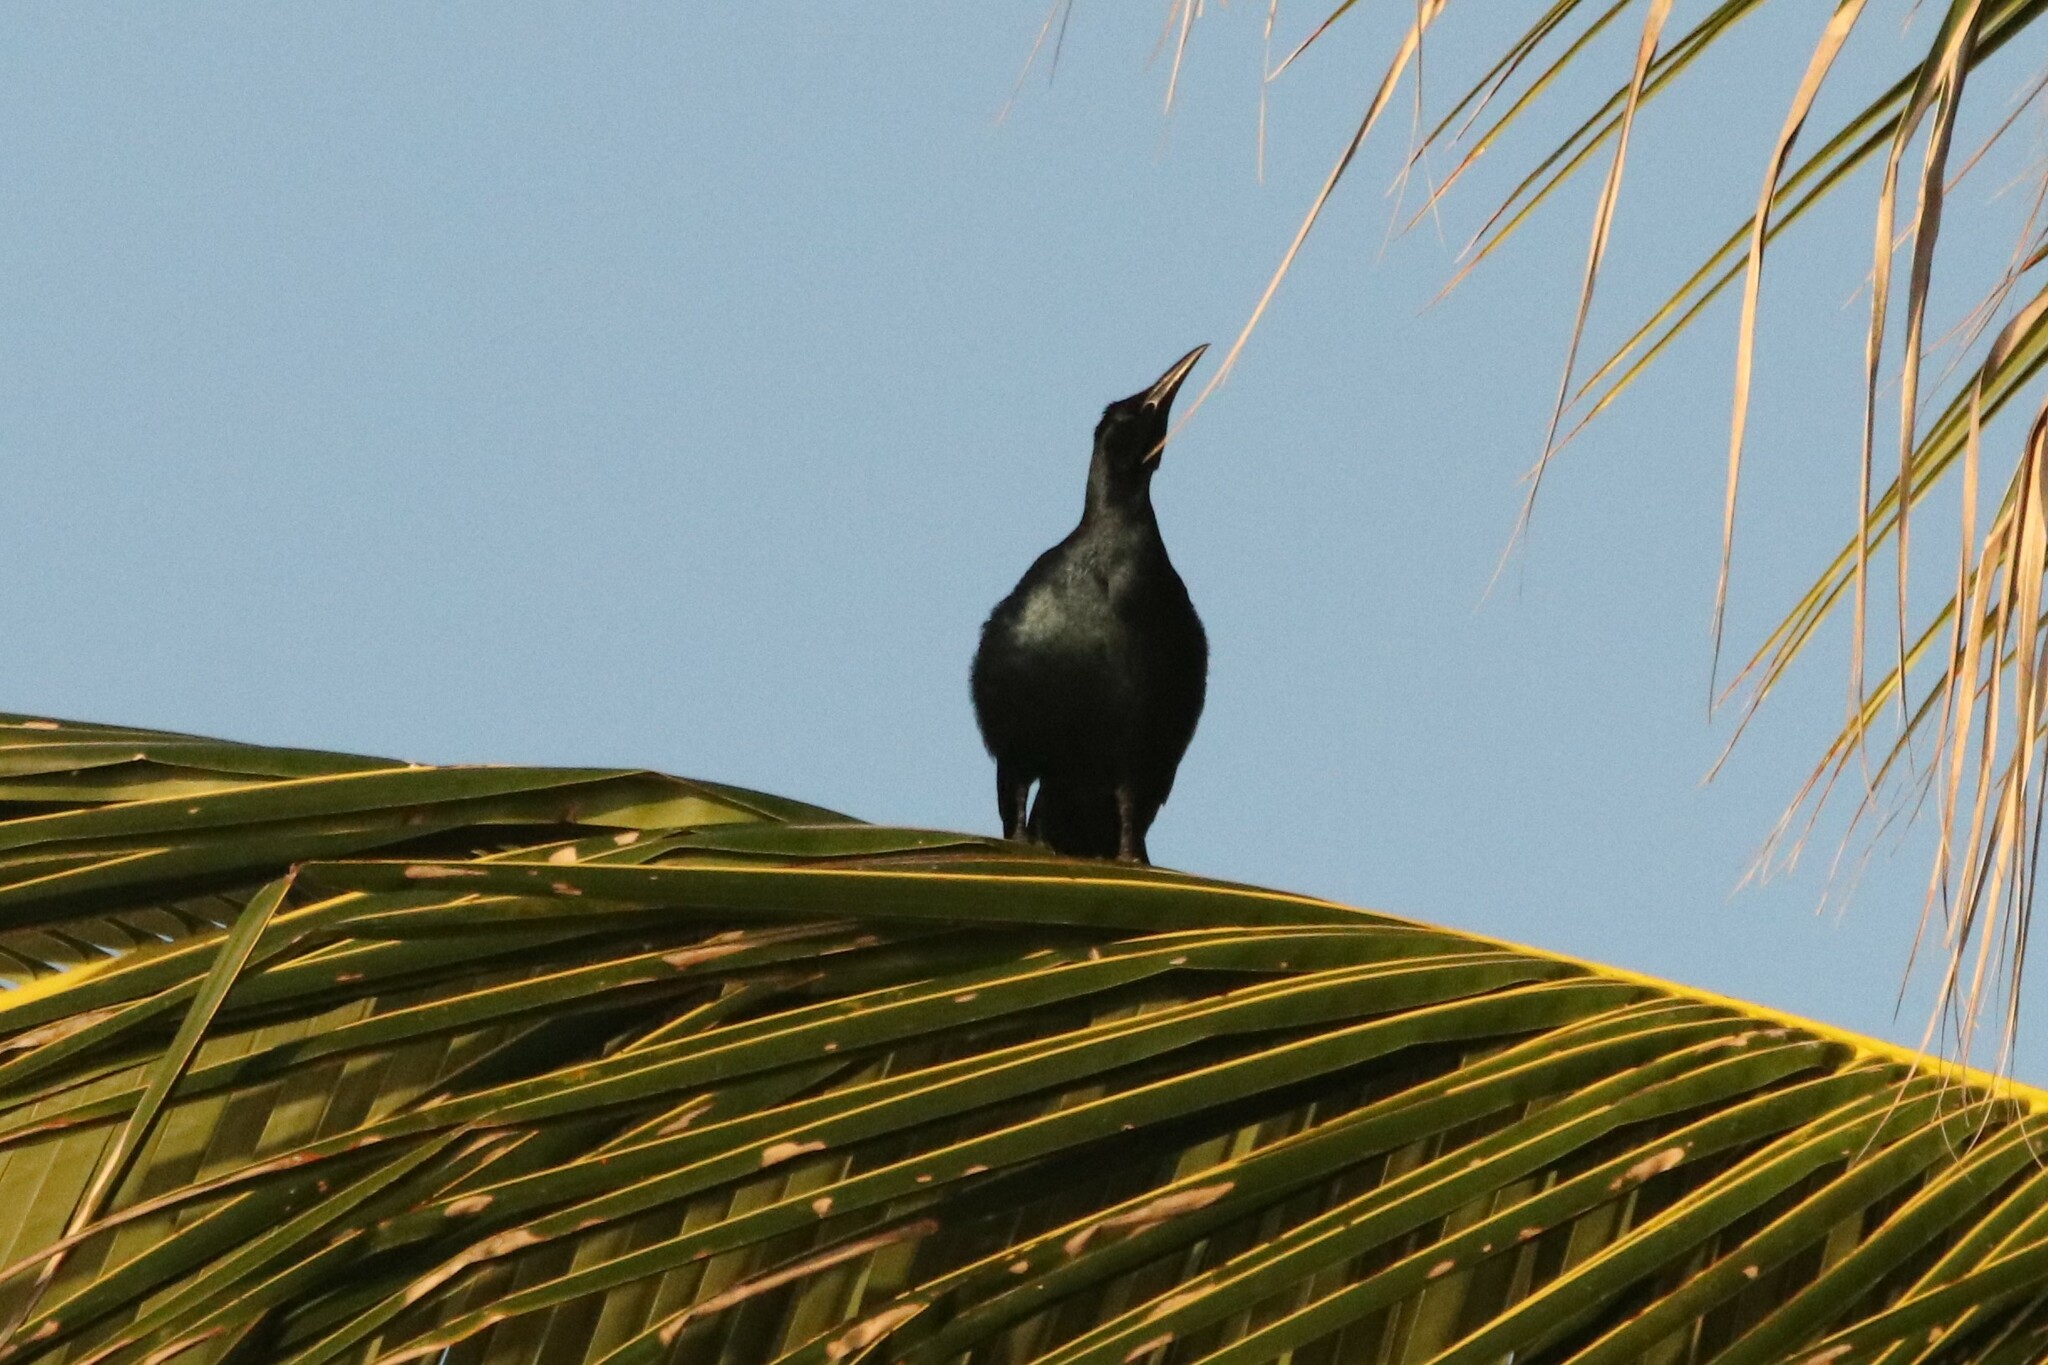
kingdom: Animalia
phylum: Chordata
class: Aves
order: Passeriformes
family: Icteridae
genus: Quiscalus
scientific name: Quiscalus mexicanus
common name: Great-tailed grackle
